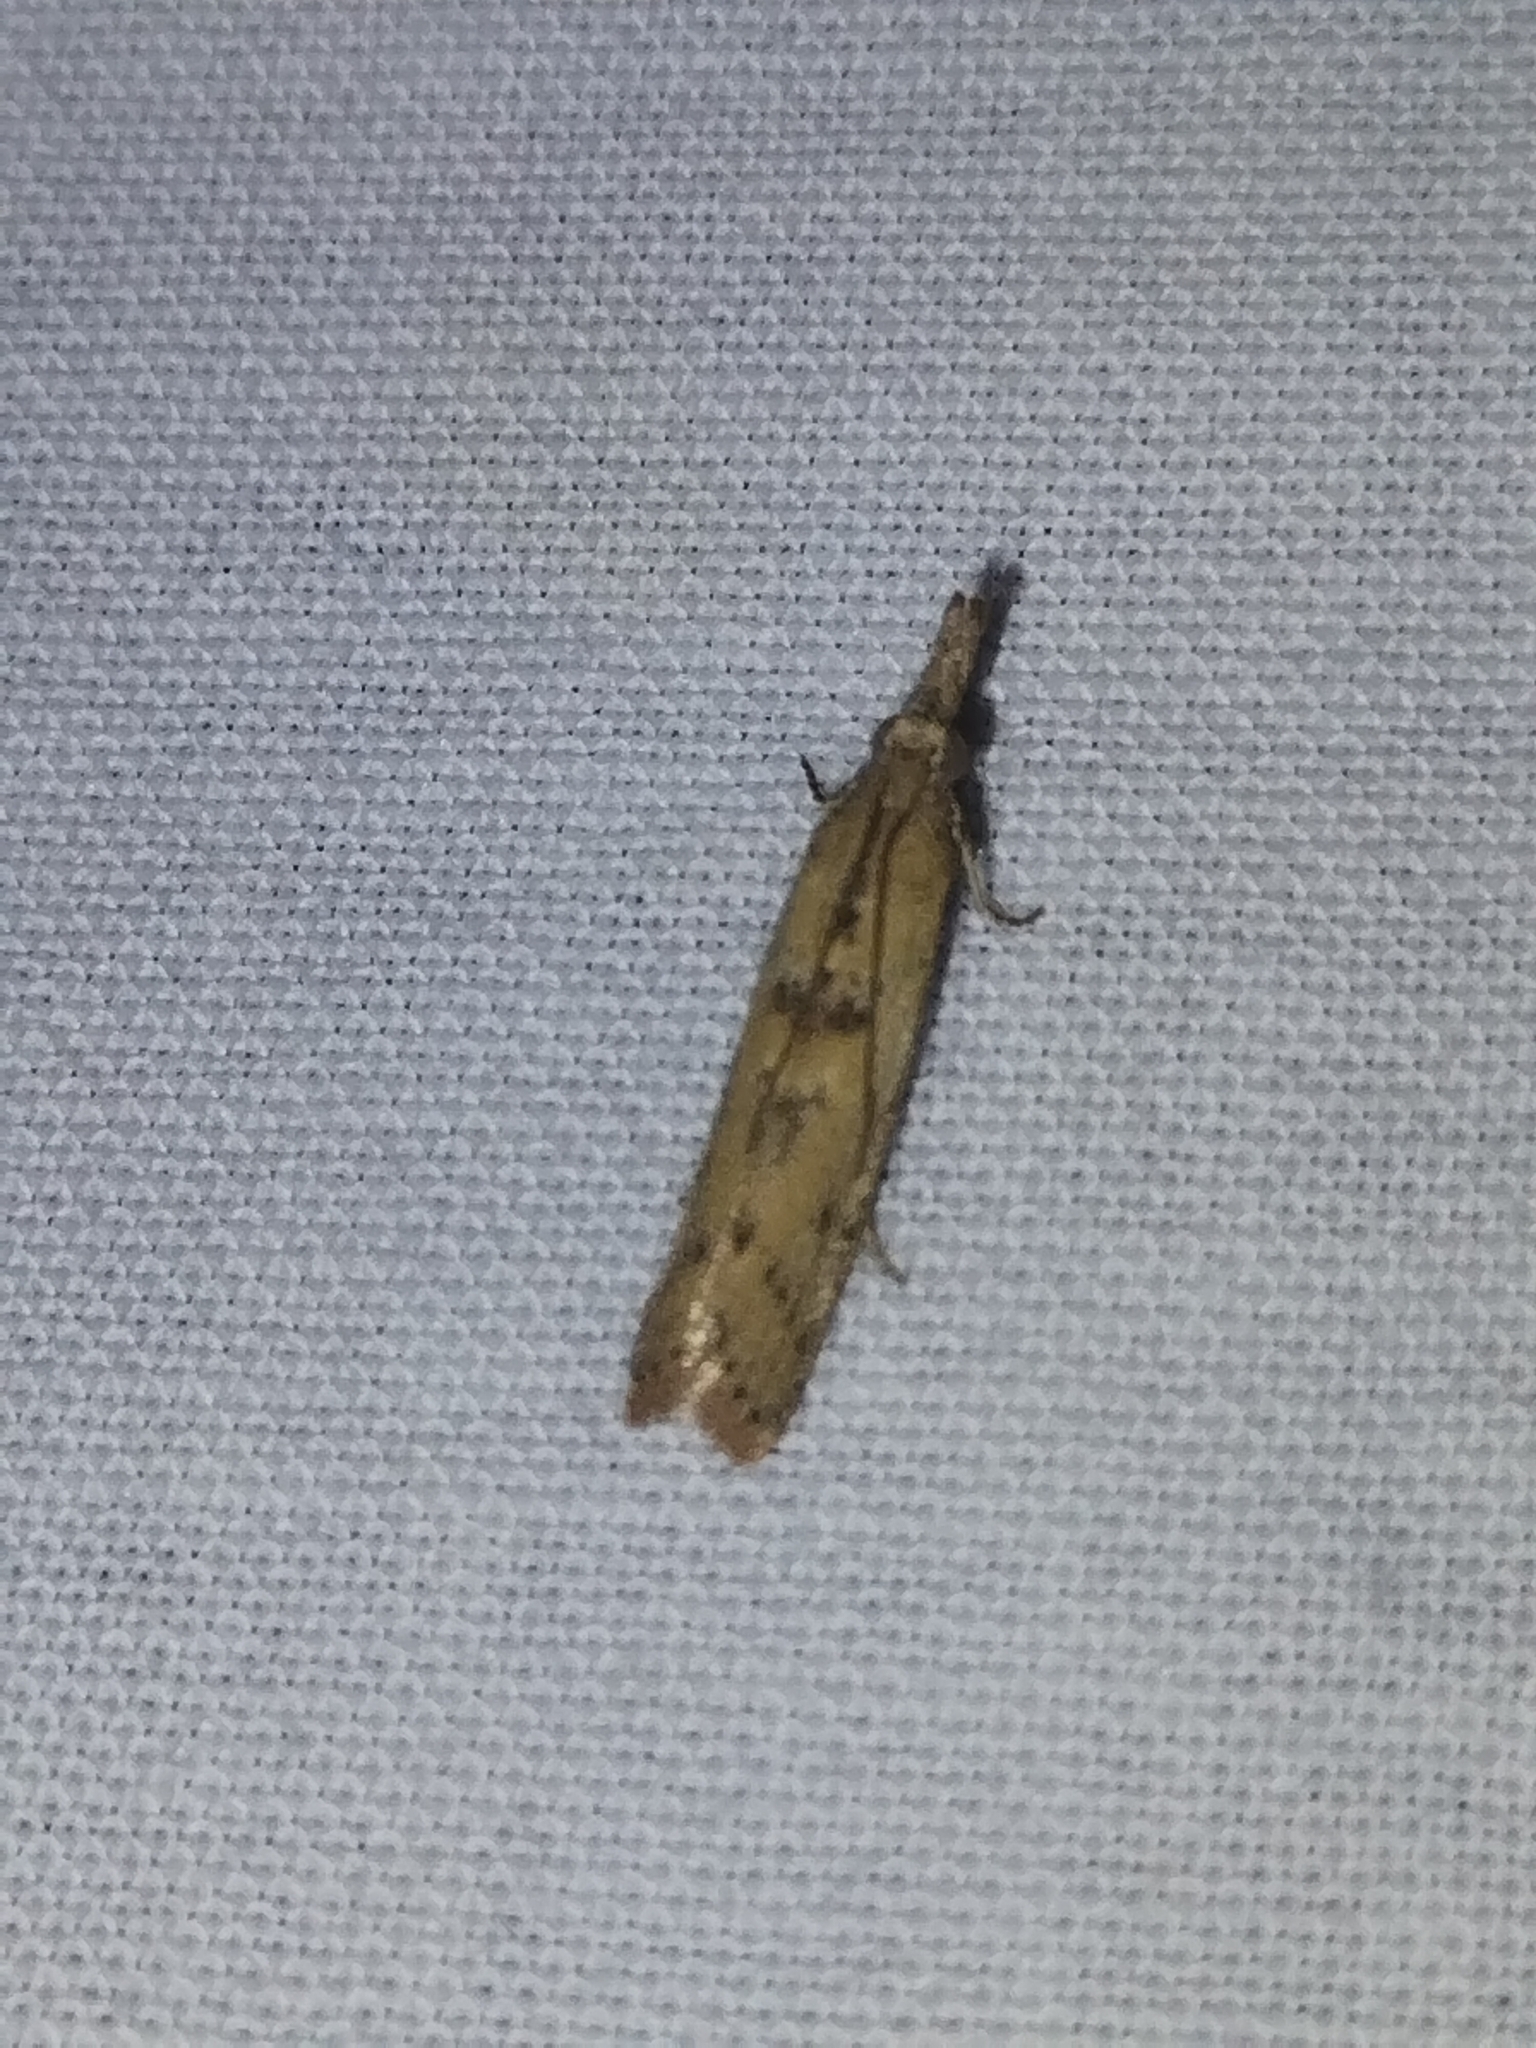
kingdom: Animalia
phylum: Arthropoda
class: Insecta
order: Lepidoptera
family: Pyralidae
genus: Macrorrhinia
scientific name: Macrorrhinia endonephele
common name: Alligator weed stemborer moth
